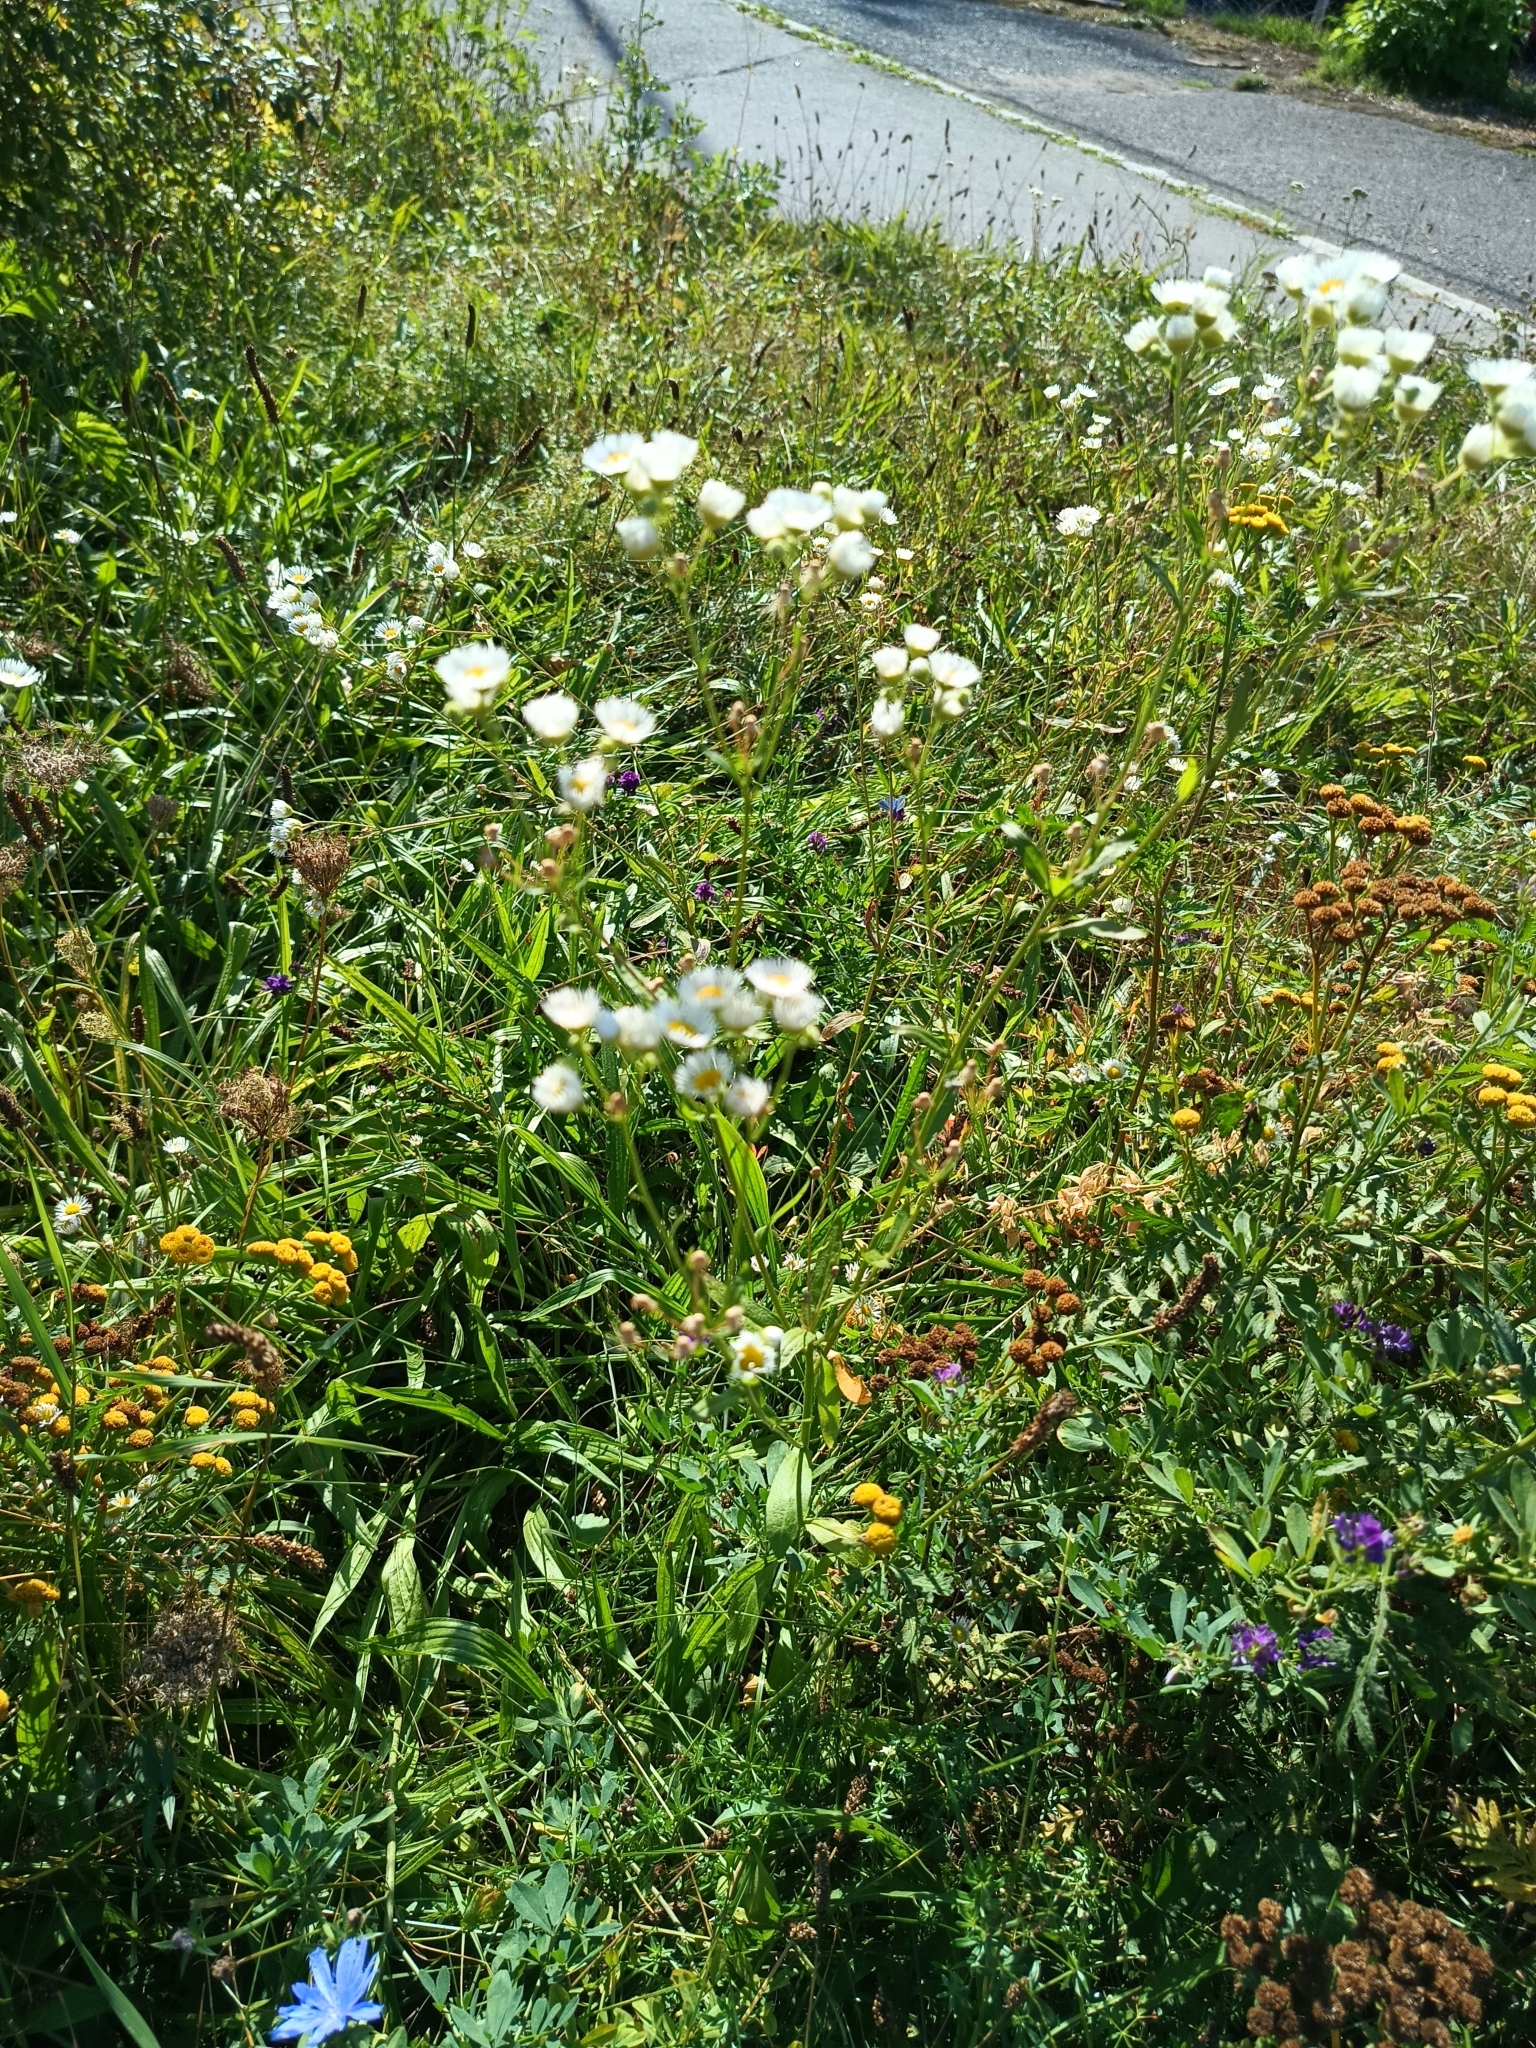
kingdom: Plantae
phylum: Tracheophyta
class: Magnoliopsida
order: Asterales
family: Asteraceae
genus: Erigeron
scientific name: Erigeron annuus
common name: Tall fleabane
